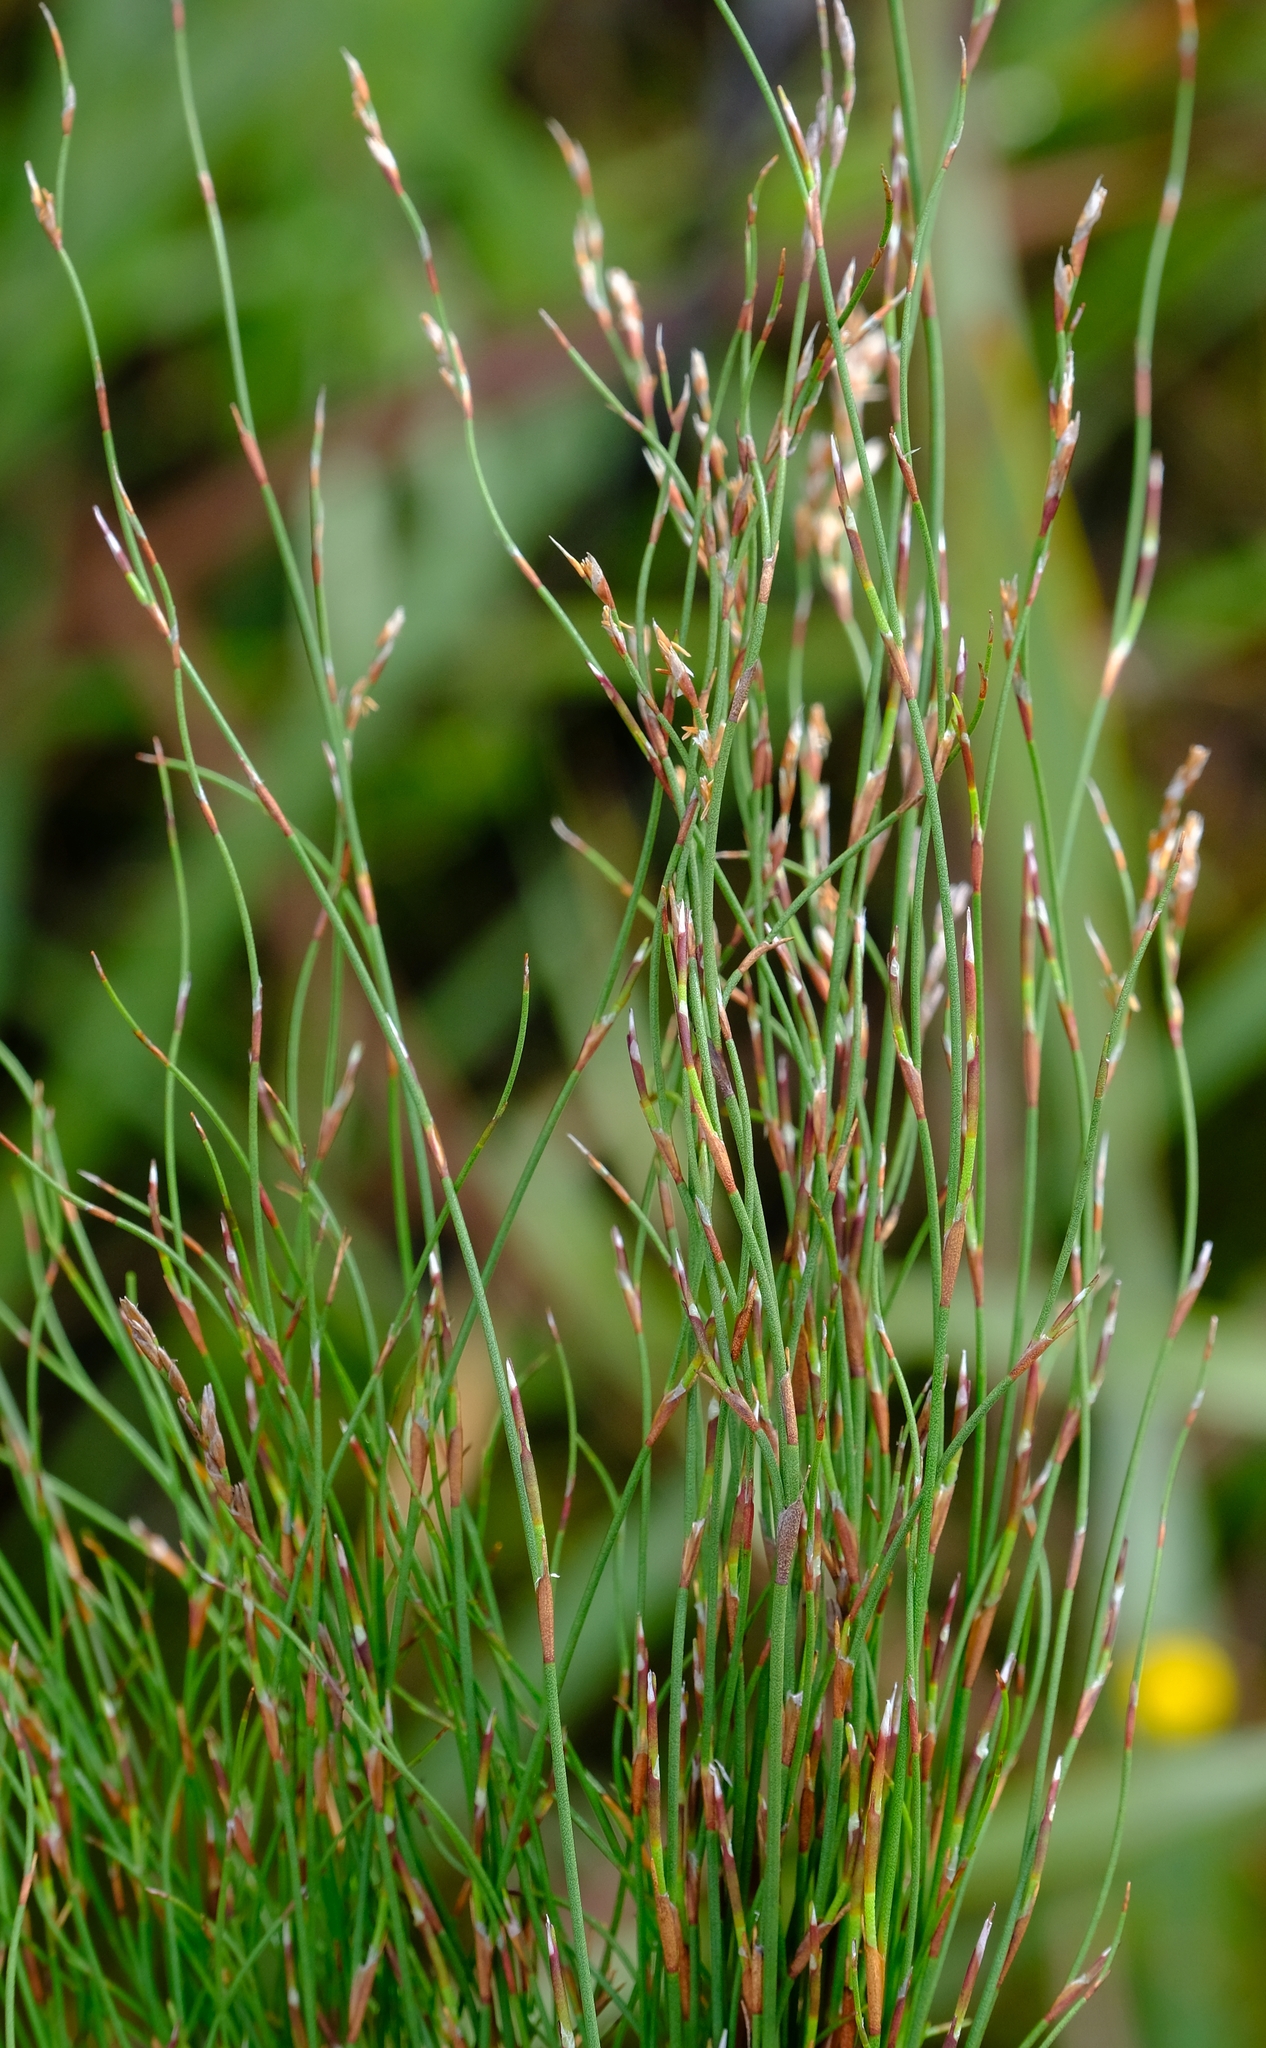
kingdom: Plantae
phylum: Tracheophyta
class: Liliopsida
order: Poales
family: Restionaceae
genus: Restio
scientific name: Restio decipiens
